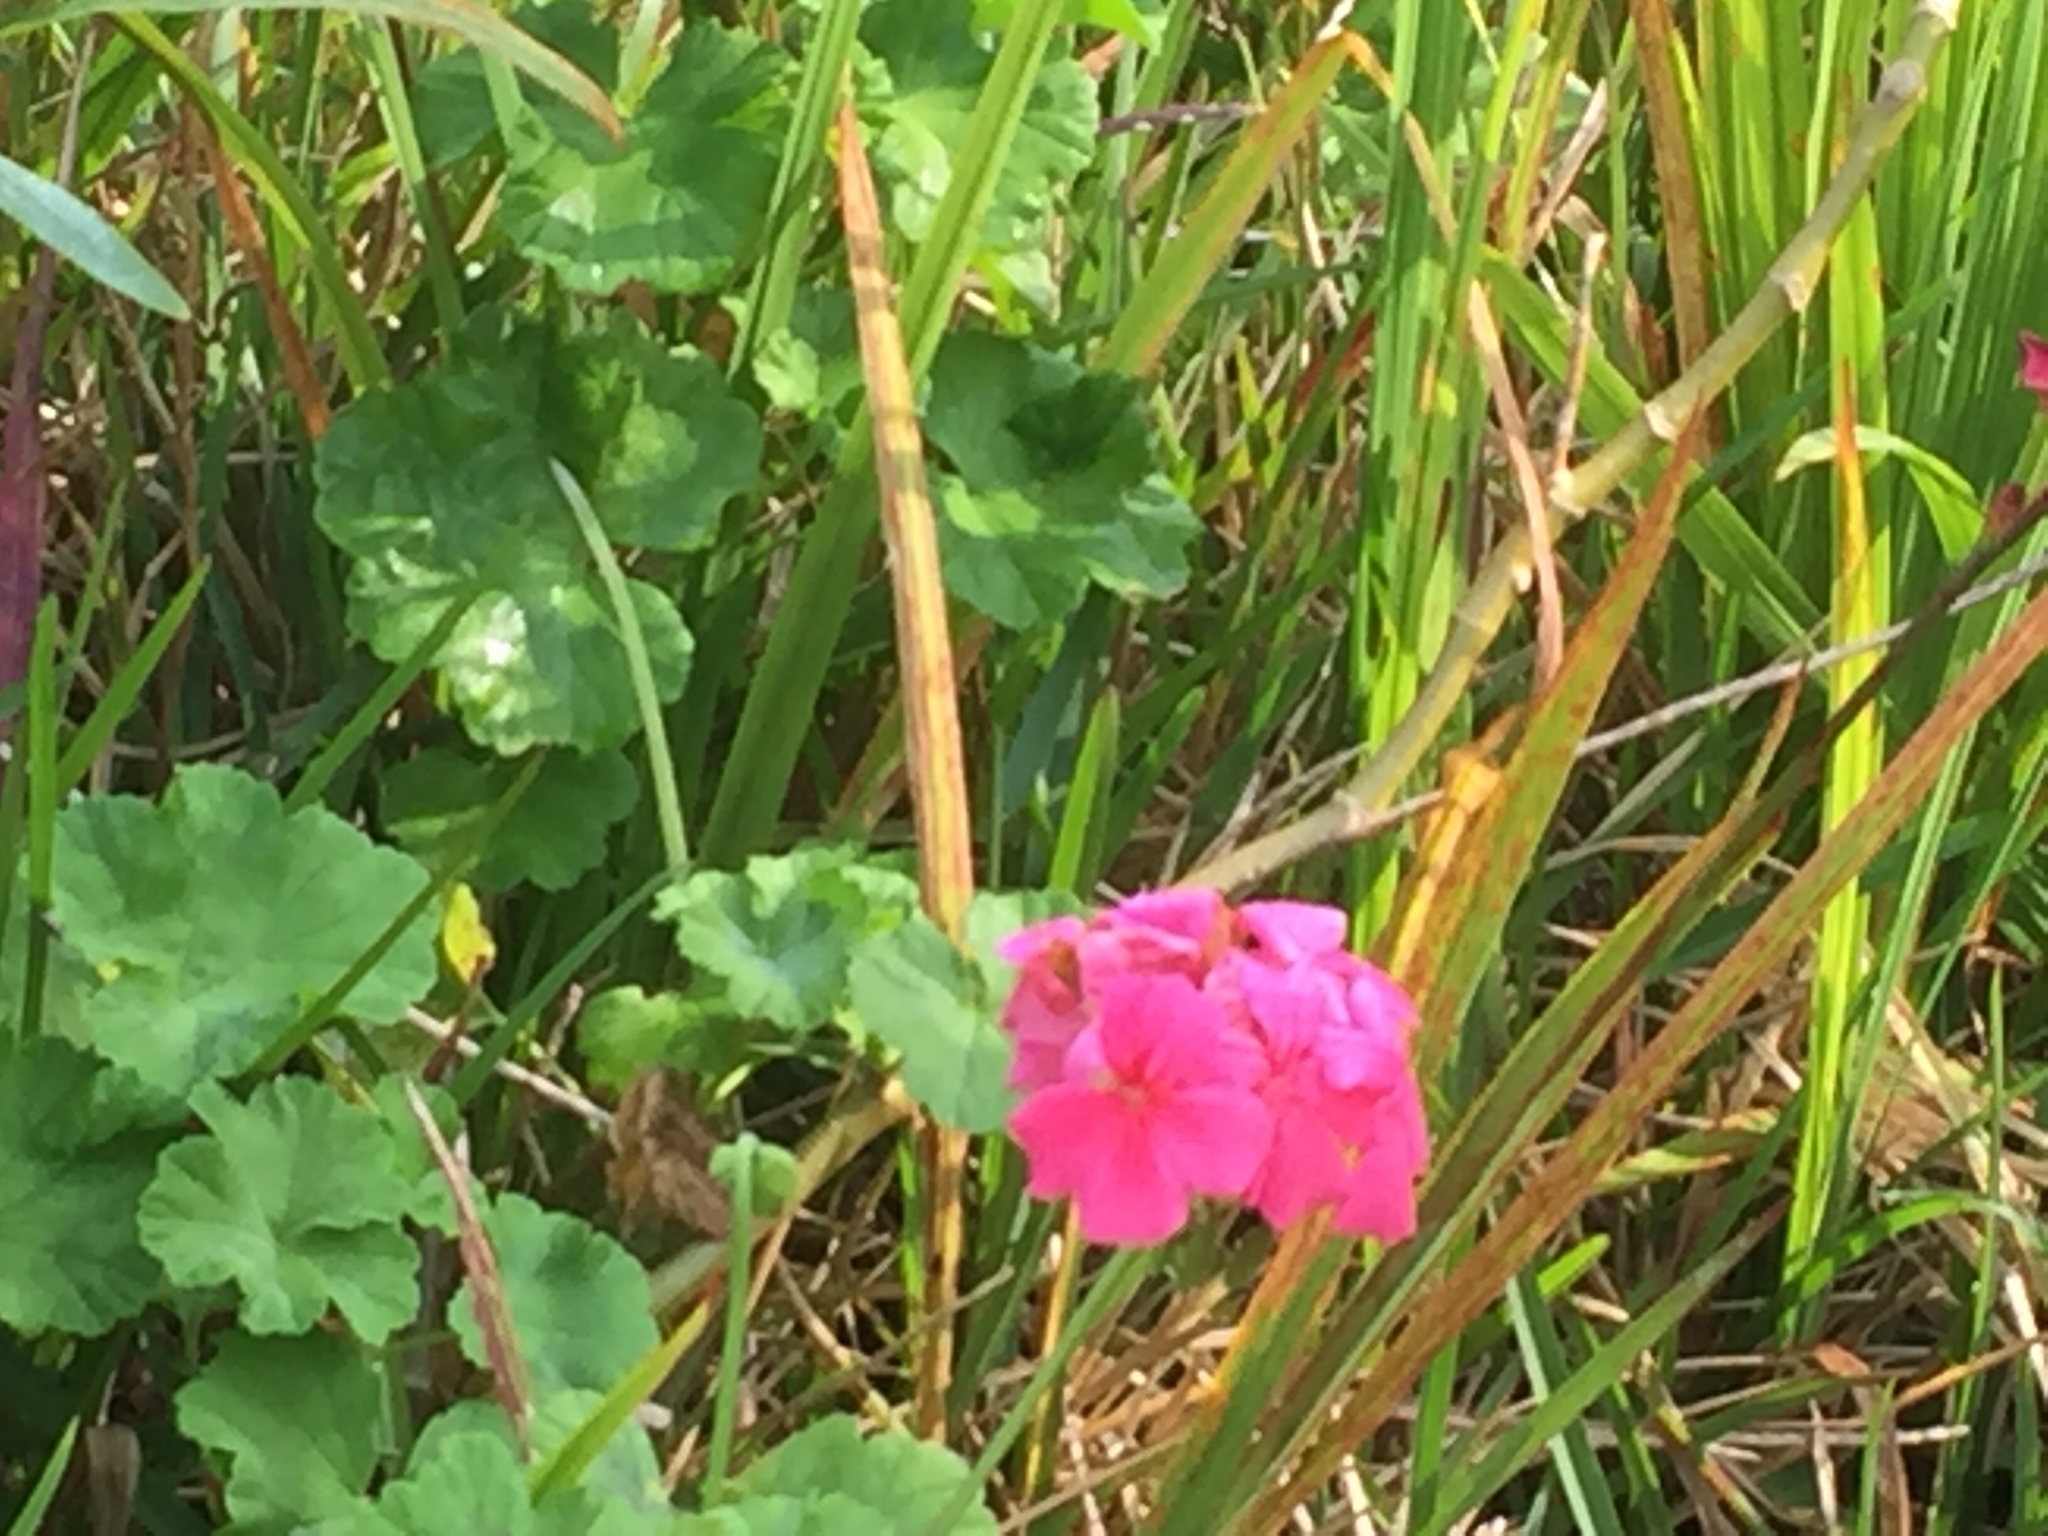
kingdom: Plantae
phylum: Tracheophyta
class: Magnoliopsida
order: Geraniales
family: Geraniaceae
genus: Pelargonium
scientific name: Pelargonium hybridum
